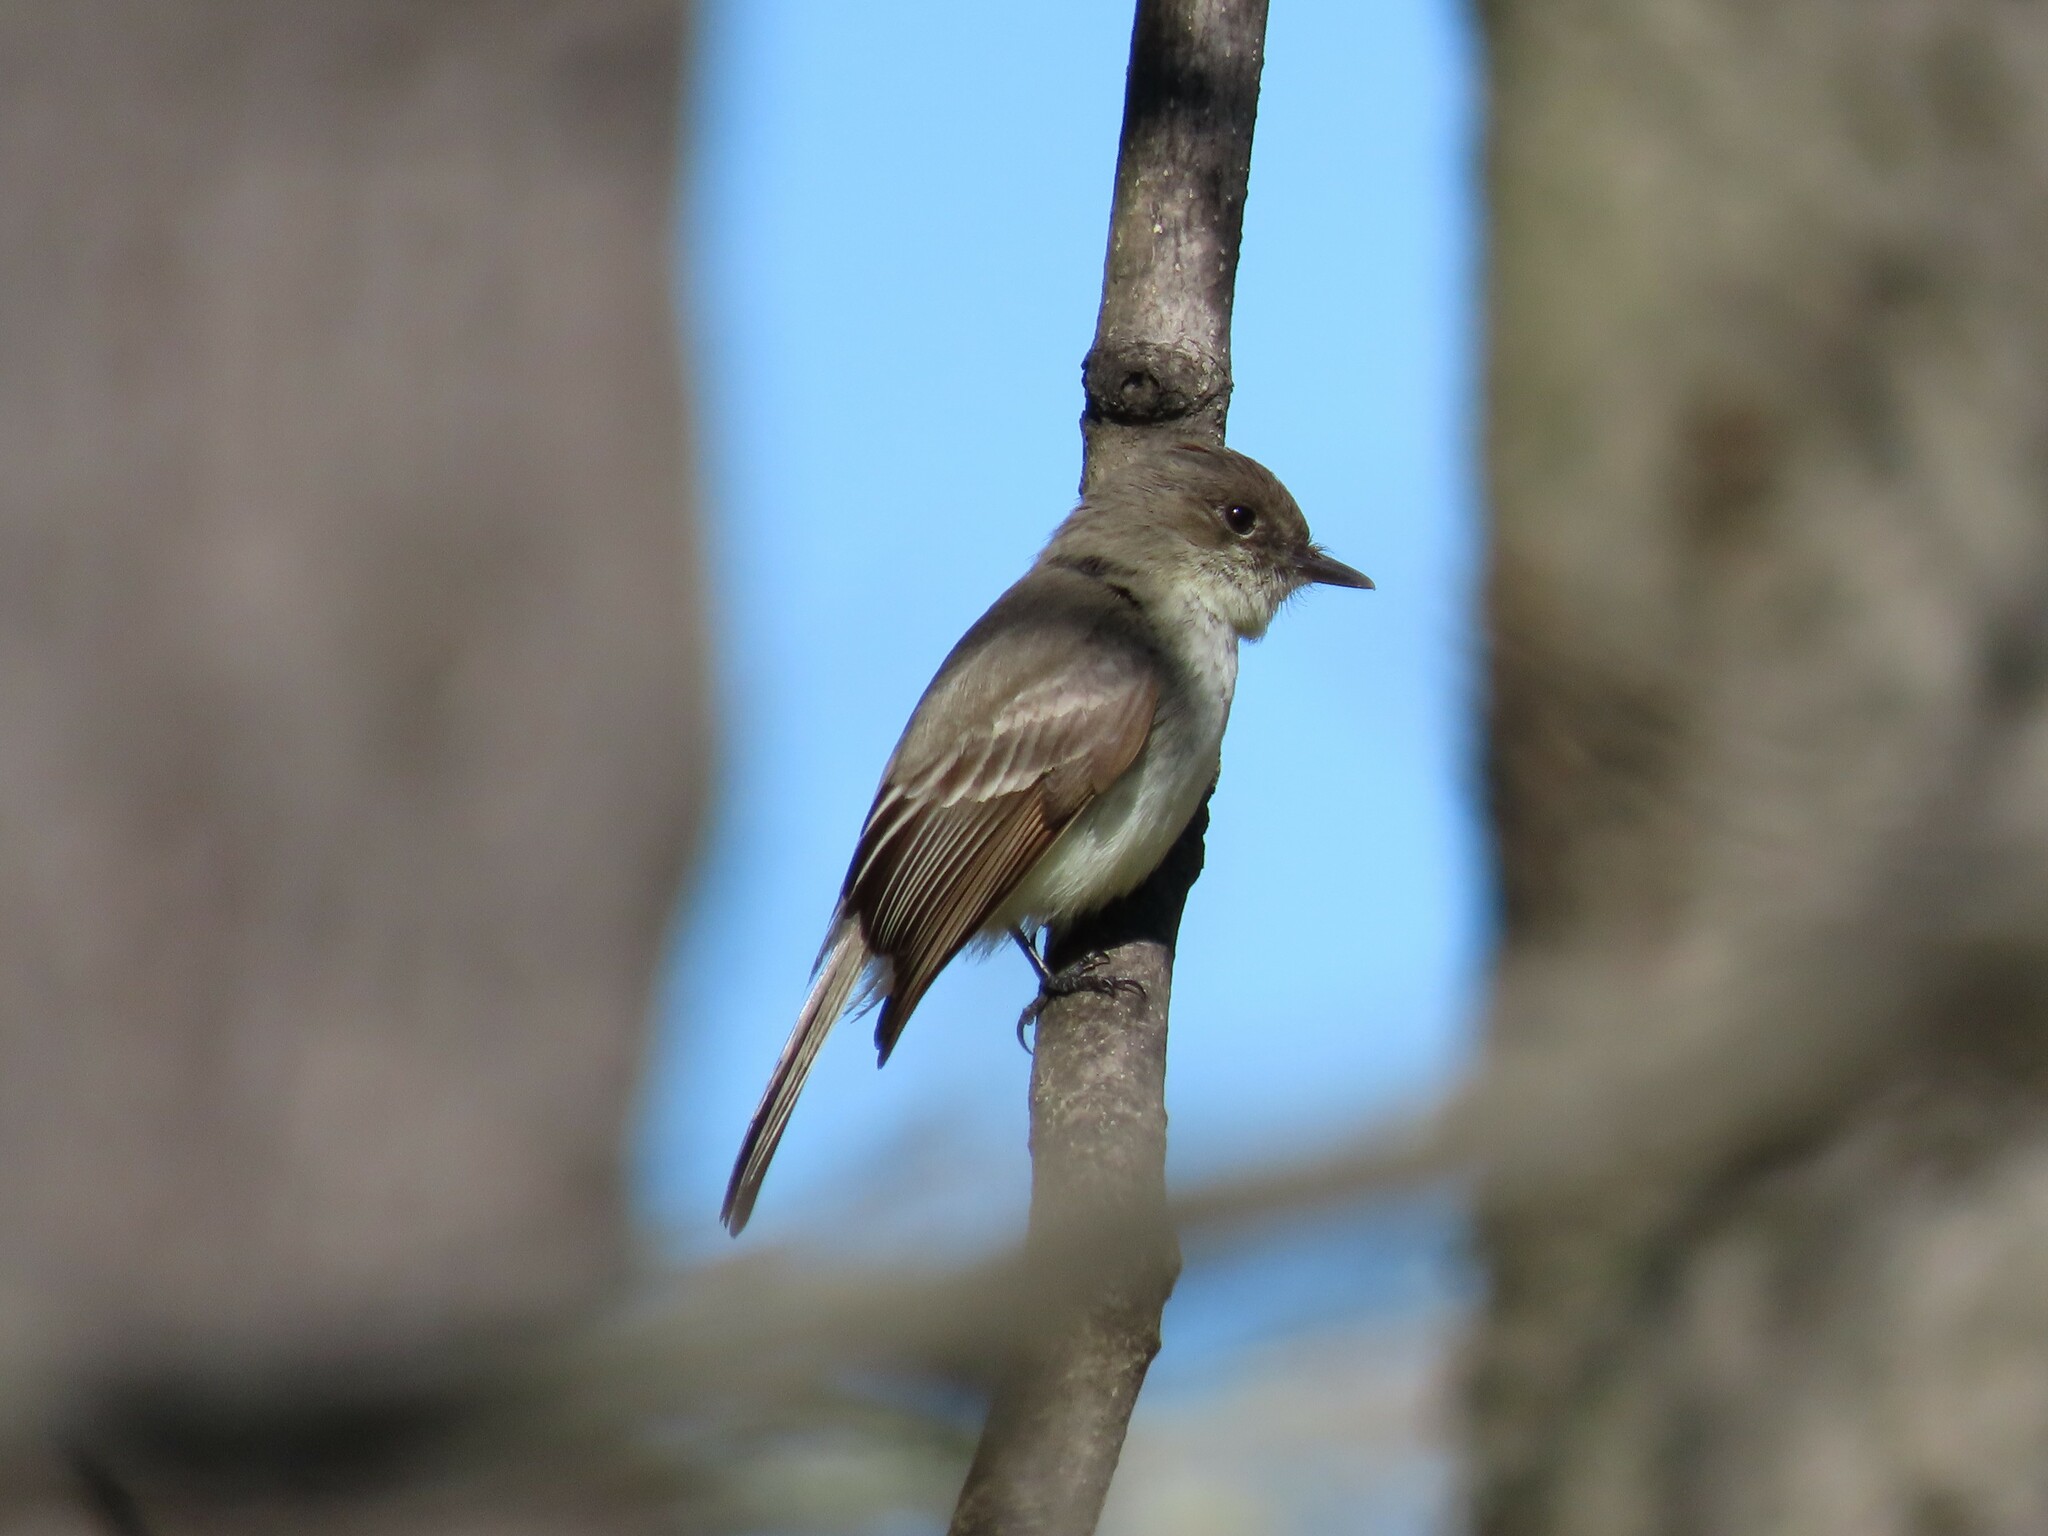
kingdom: Animalia
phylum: Chordata
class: Aves
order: Passeriformes
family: Tyrannidae
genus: Sayornis
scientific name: Sayornis phoebe
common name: Eastern phoebe
